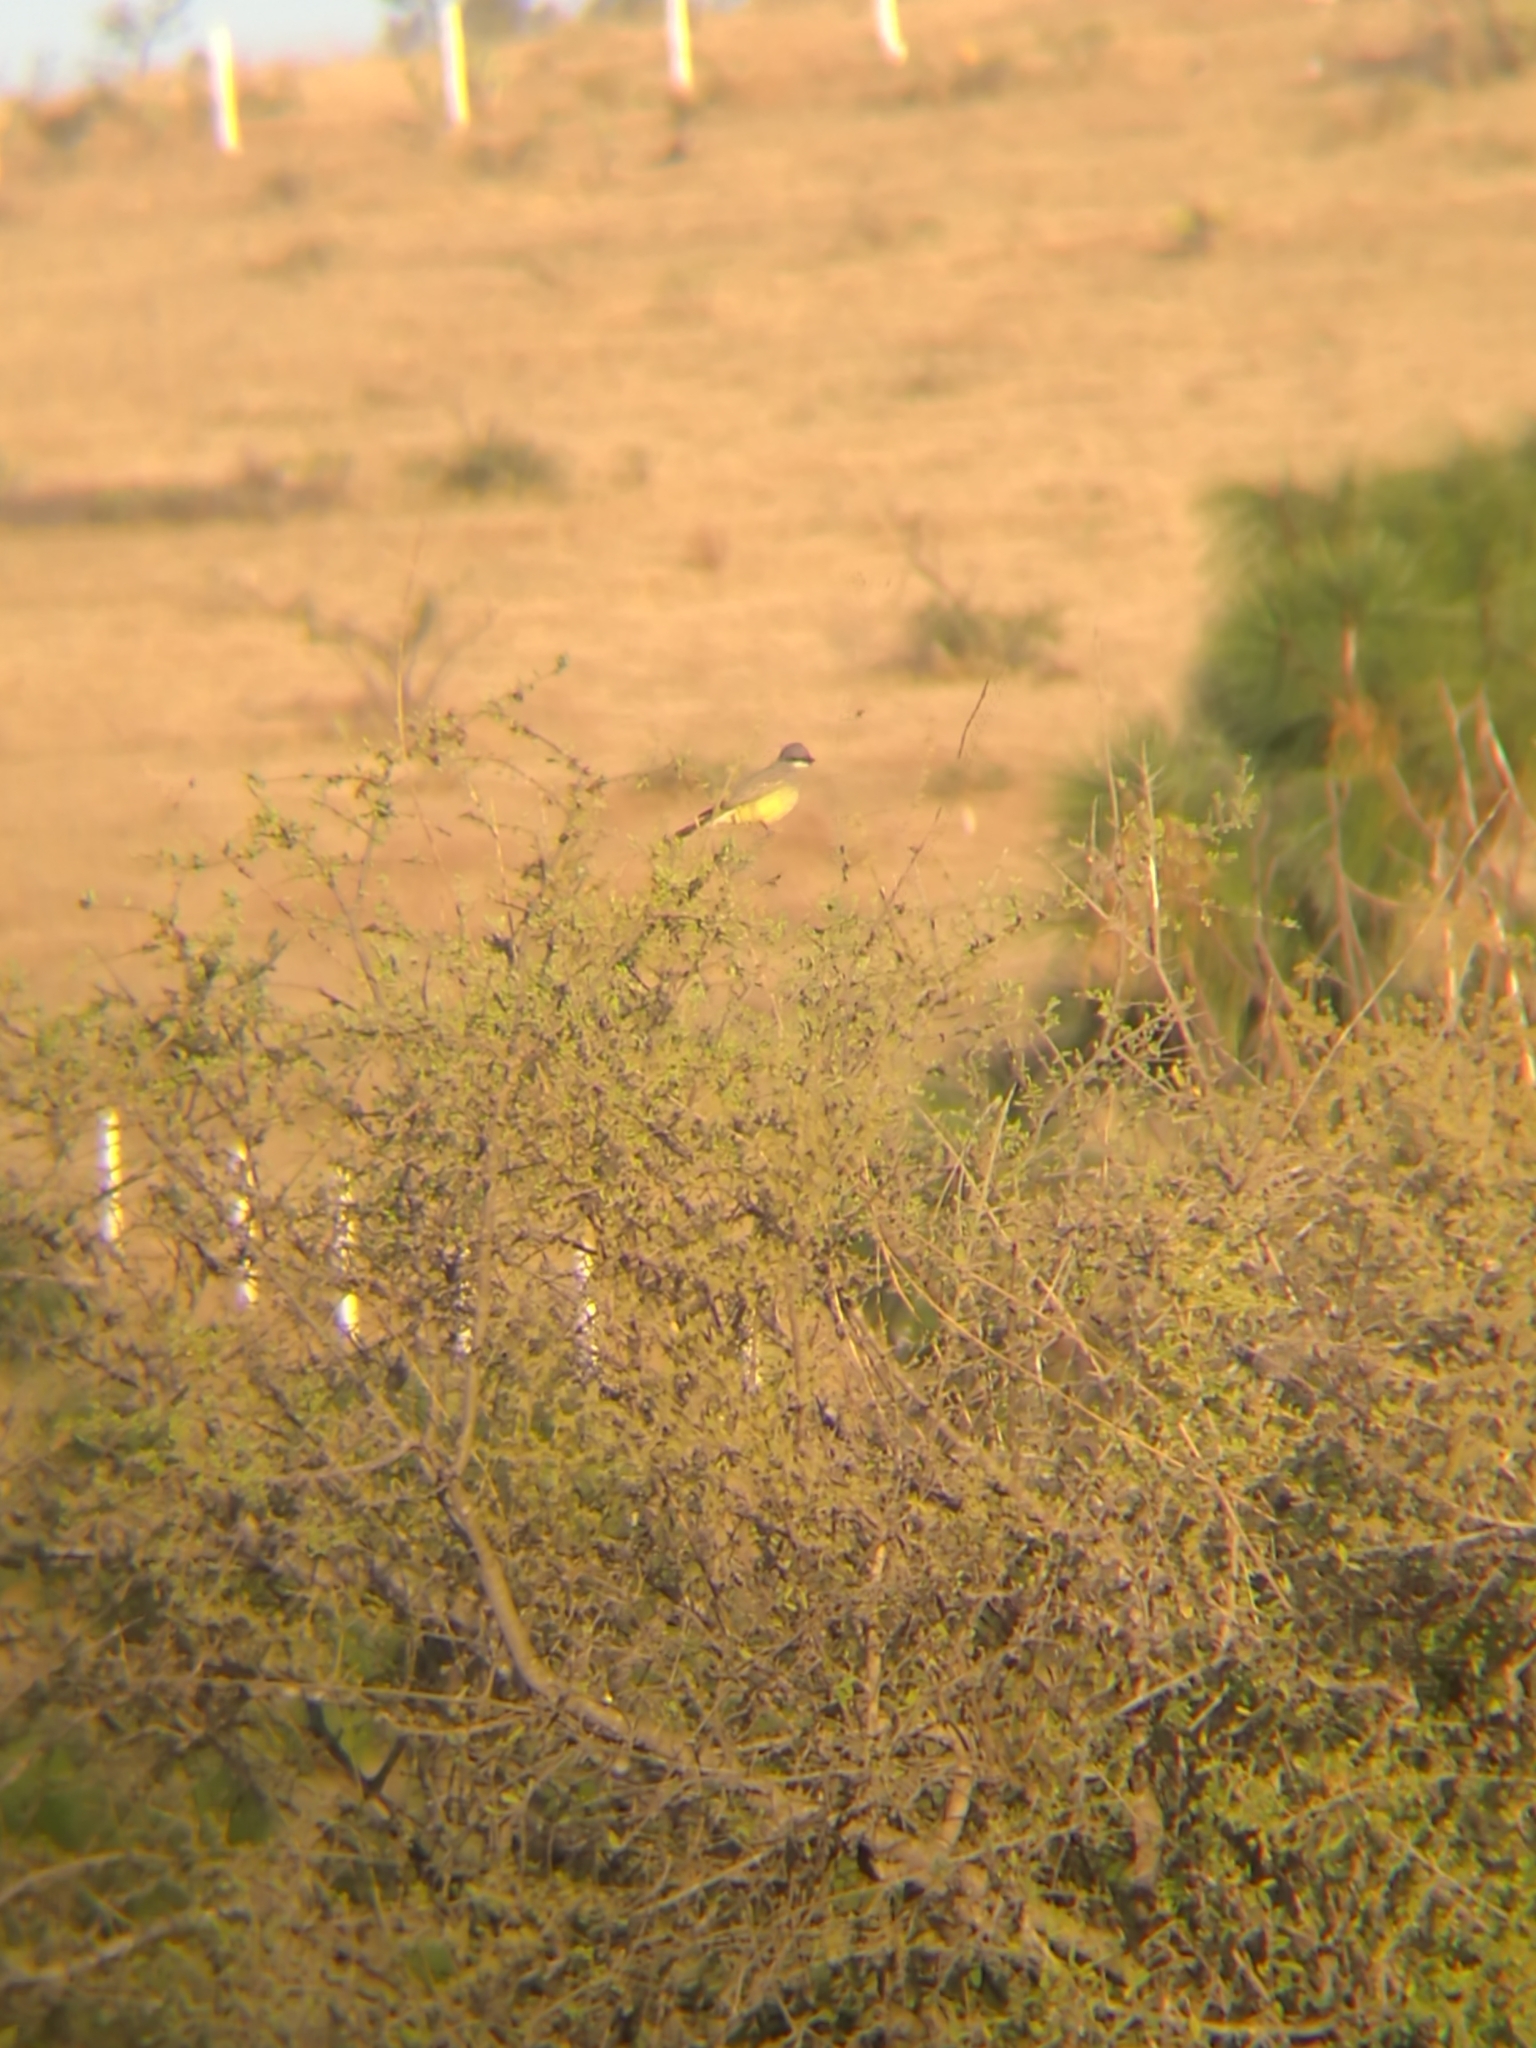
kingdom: Animalia
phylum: Chordata
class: Aves
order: Passeriformes
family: Tyrannidae
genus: Tyrannus
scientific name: Tyrannus vociferans
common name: Cassin's kingbird
